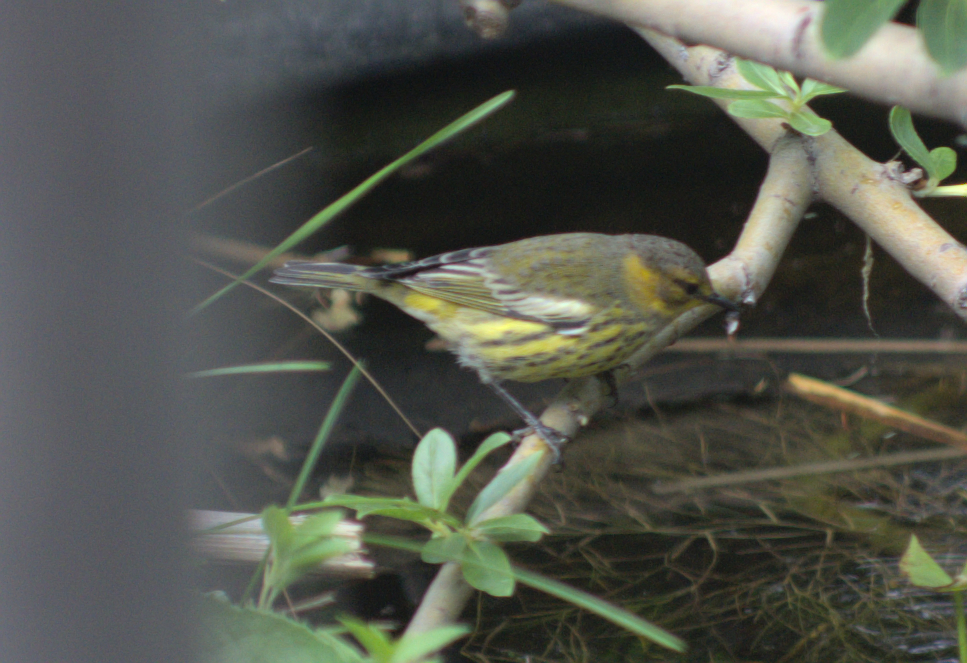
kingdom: Animalia
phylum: Chordata
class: Aves
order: Passeriformes
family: Parulidae
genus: Setophaga
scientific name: Setophaga tigrina
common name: Cape may warbler
